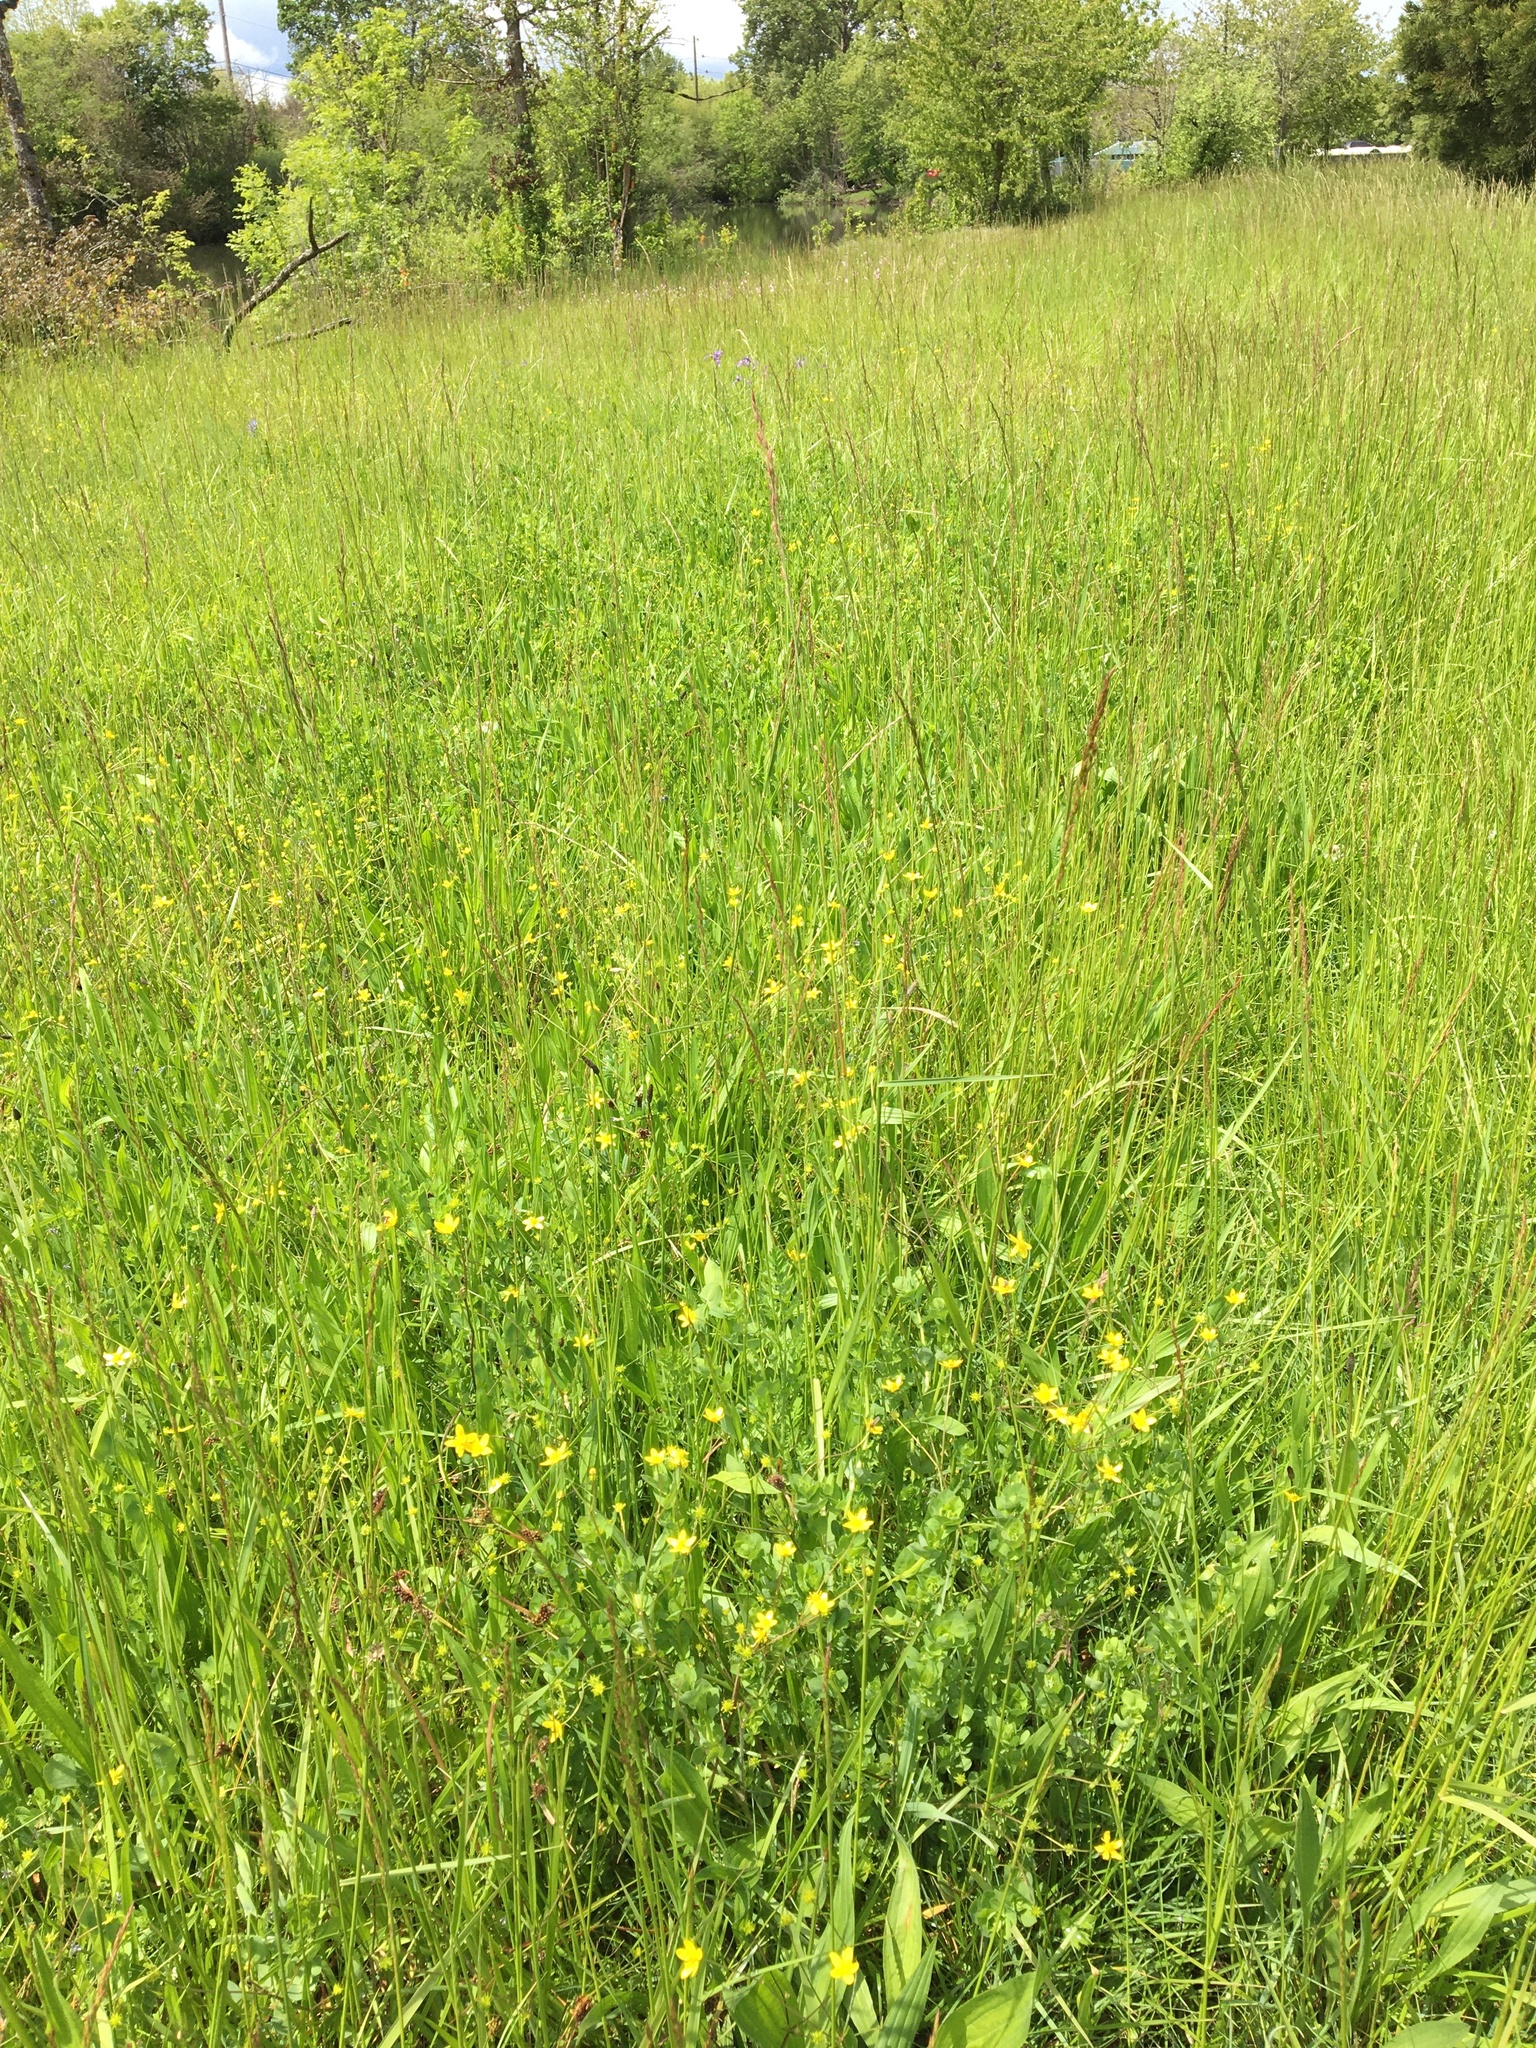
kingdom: Plantae
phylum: Tracheophyta
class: Magnoliopsida
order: Ranunculales
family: Ranunculaceae
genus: Ranunculus
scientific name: Ranunculus occidentalis
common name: Western buttercup
